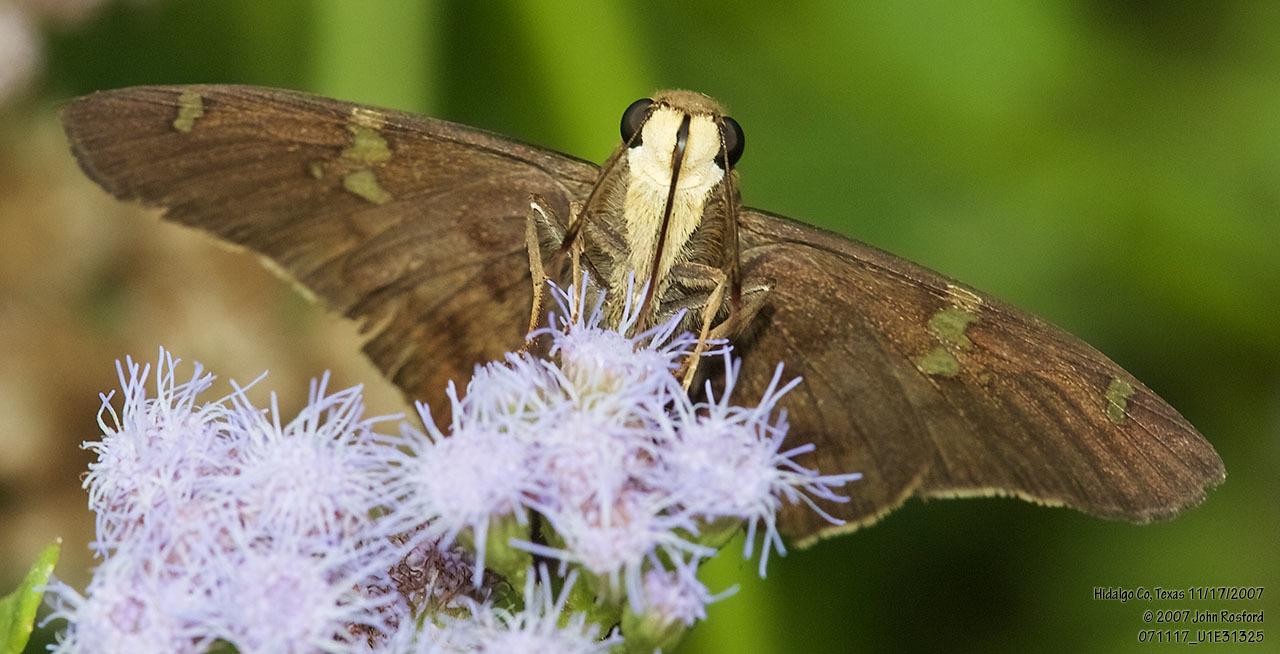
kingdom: Animalia
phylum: Arthropoda
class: Insecta
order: Lepidoptera
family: Hesperiidae
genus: Polythrix
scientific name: Polythrix octomaculata
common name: Eight-spotted longtail
